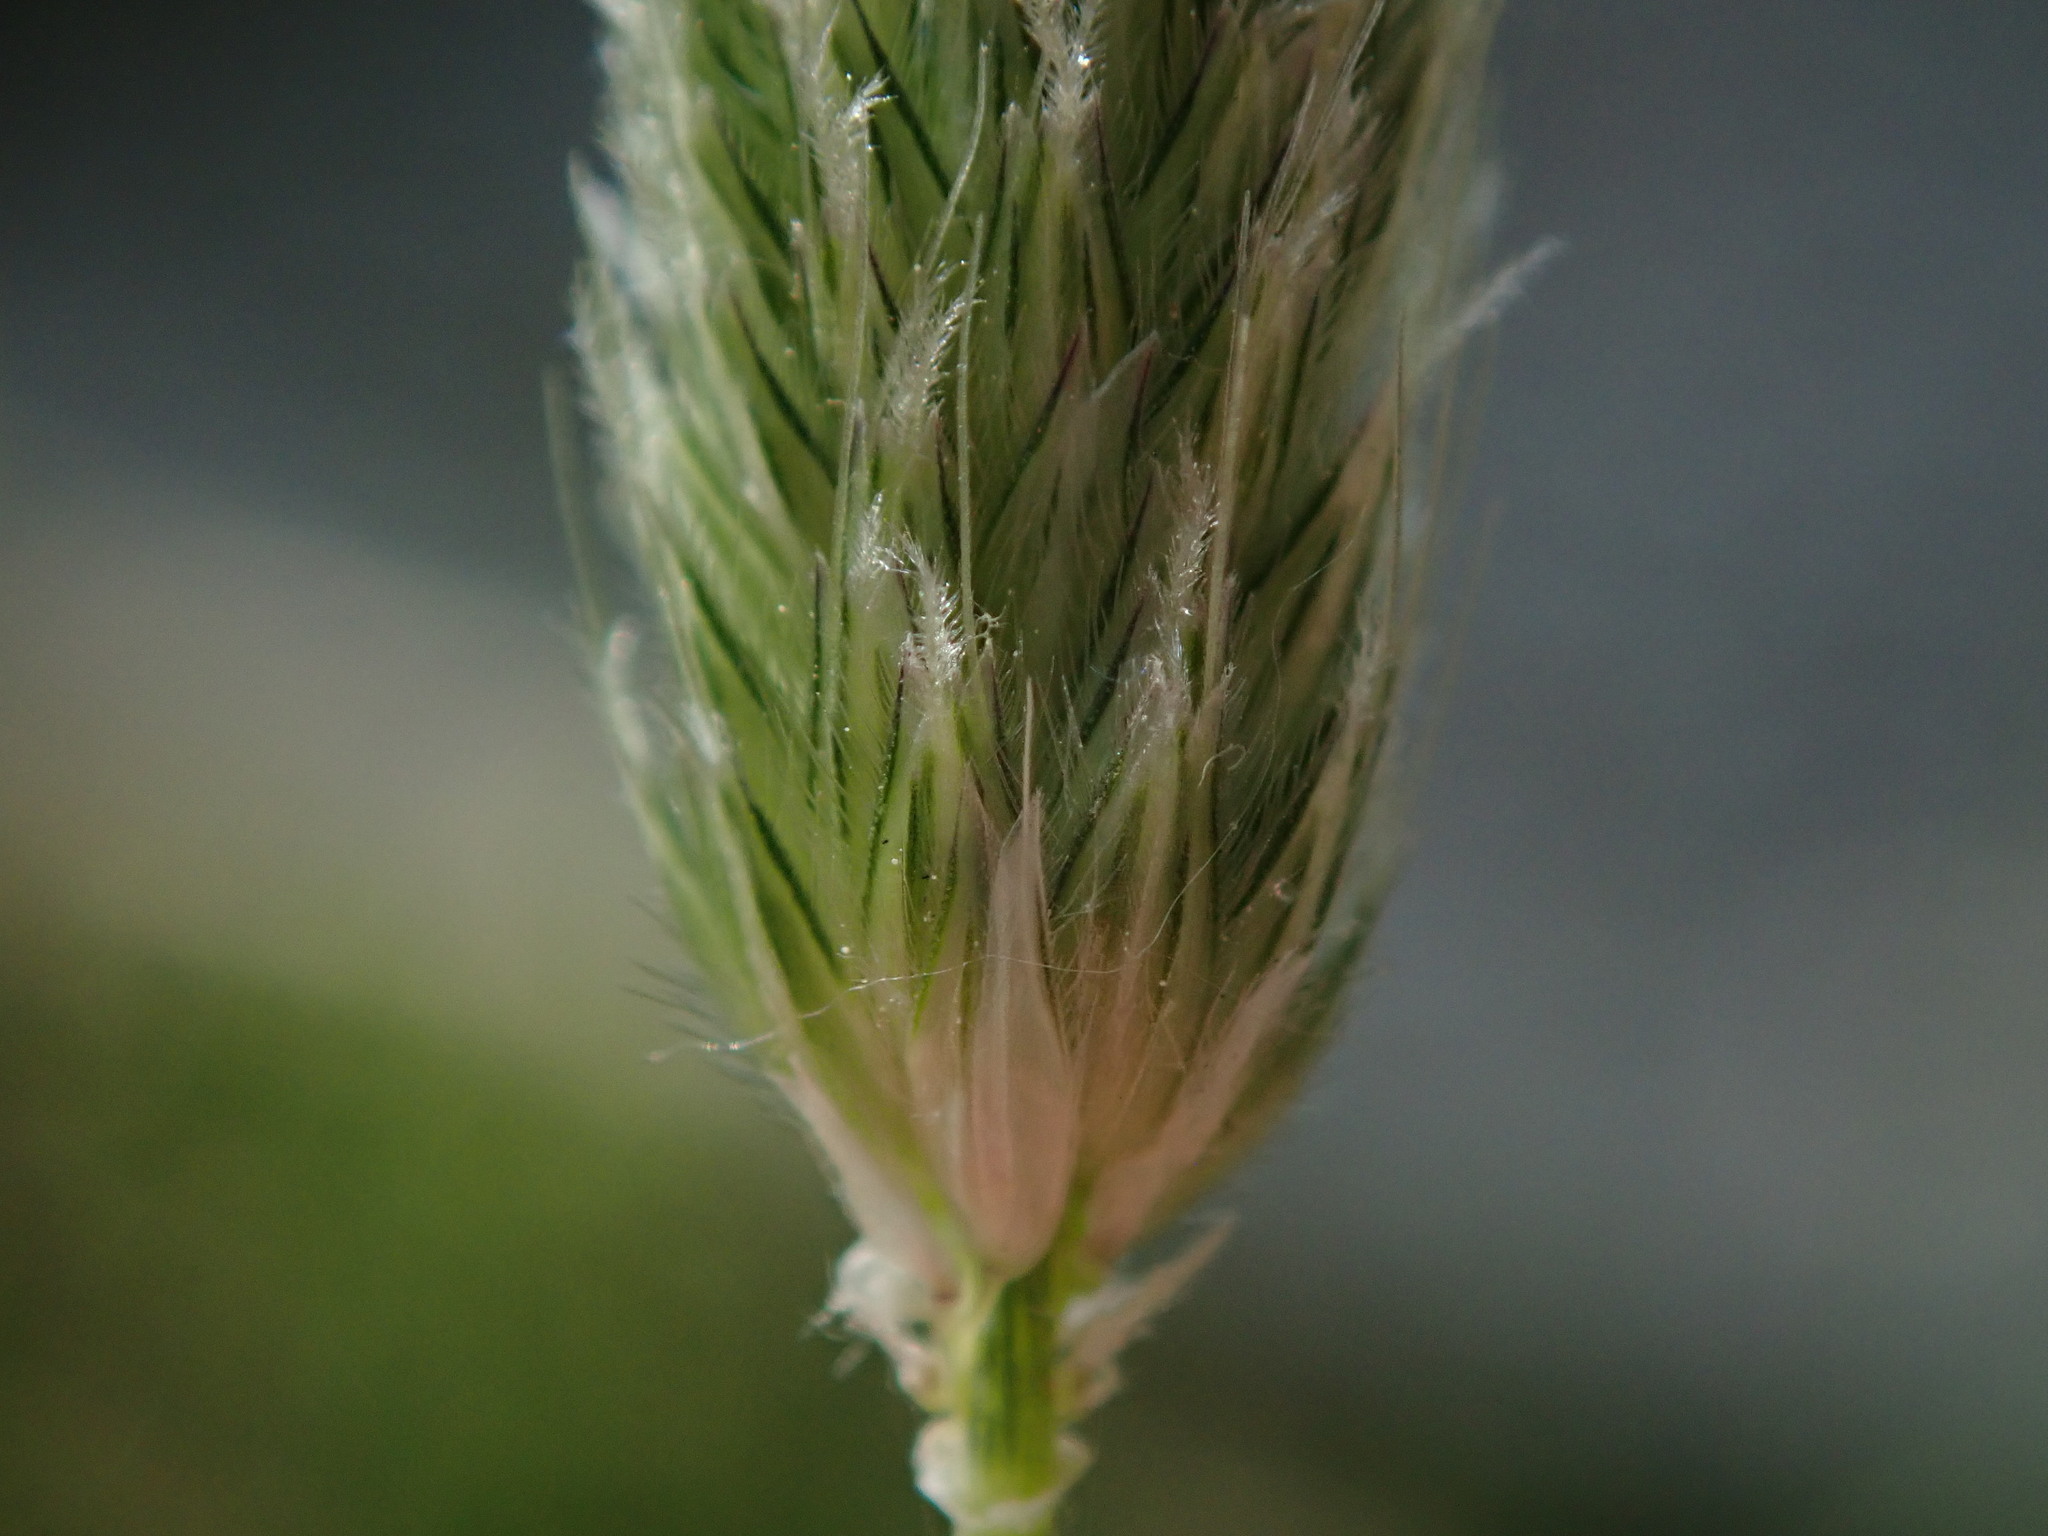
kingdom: Plantae
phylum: Tracheophyta
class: Liliopsida
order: Poales
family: Poaceae
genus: Alopecurus
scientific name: Alopecurus pratensis
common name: Meadow foxtail
